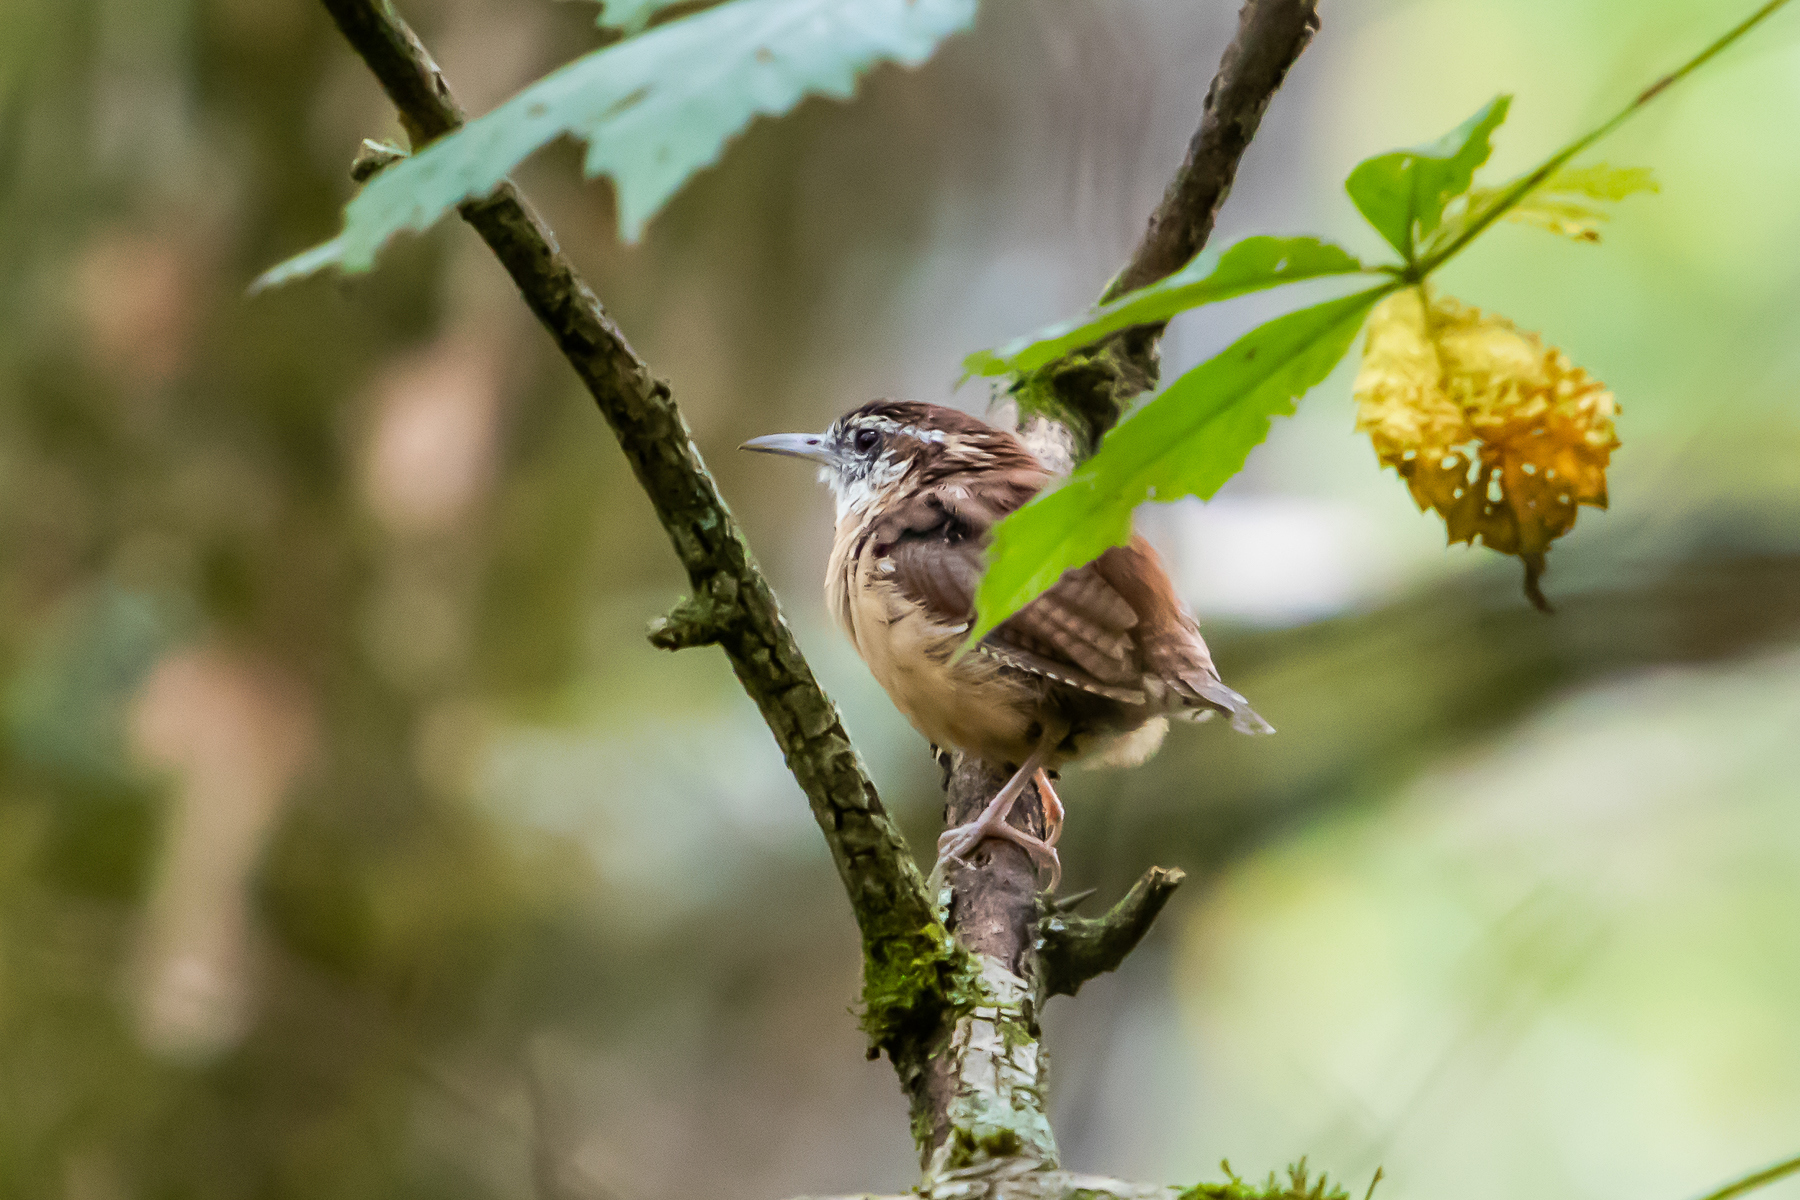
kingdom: Animalia
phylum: Chordata
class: Aves
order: Passeriformes
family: Troglodytidae
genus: Thryothorus
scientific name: Thryothorus ludovicianus
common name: Carolina wren
